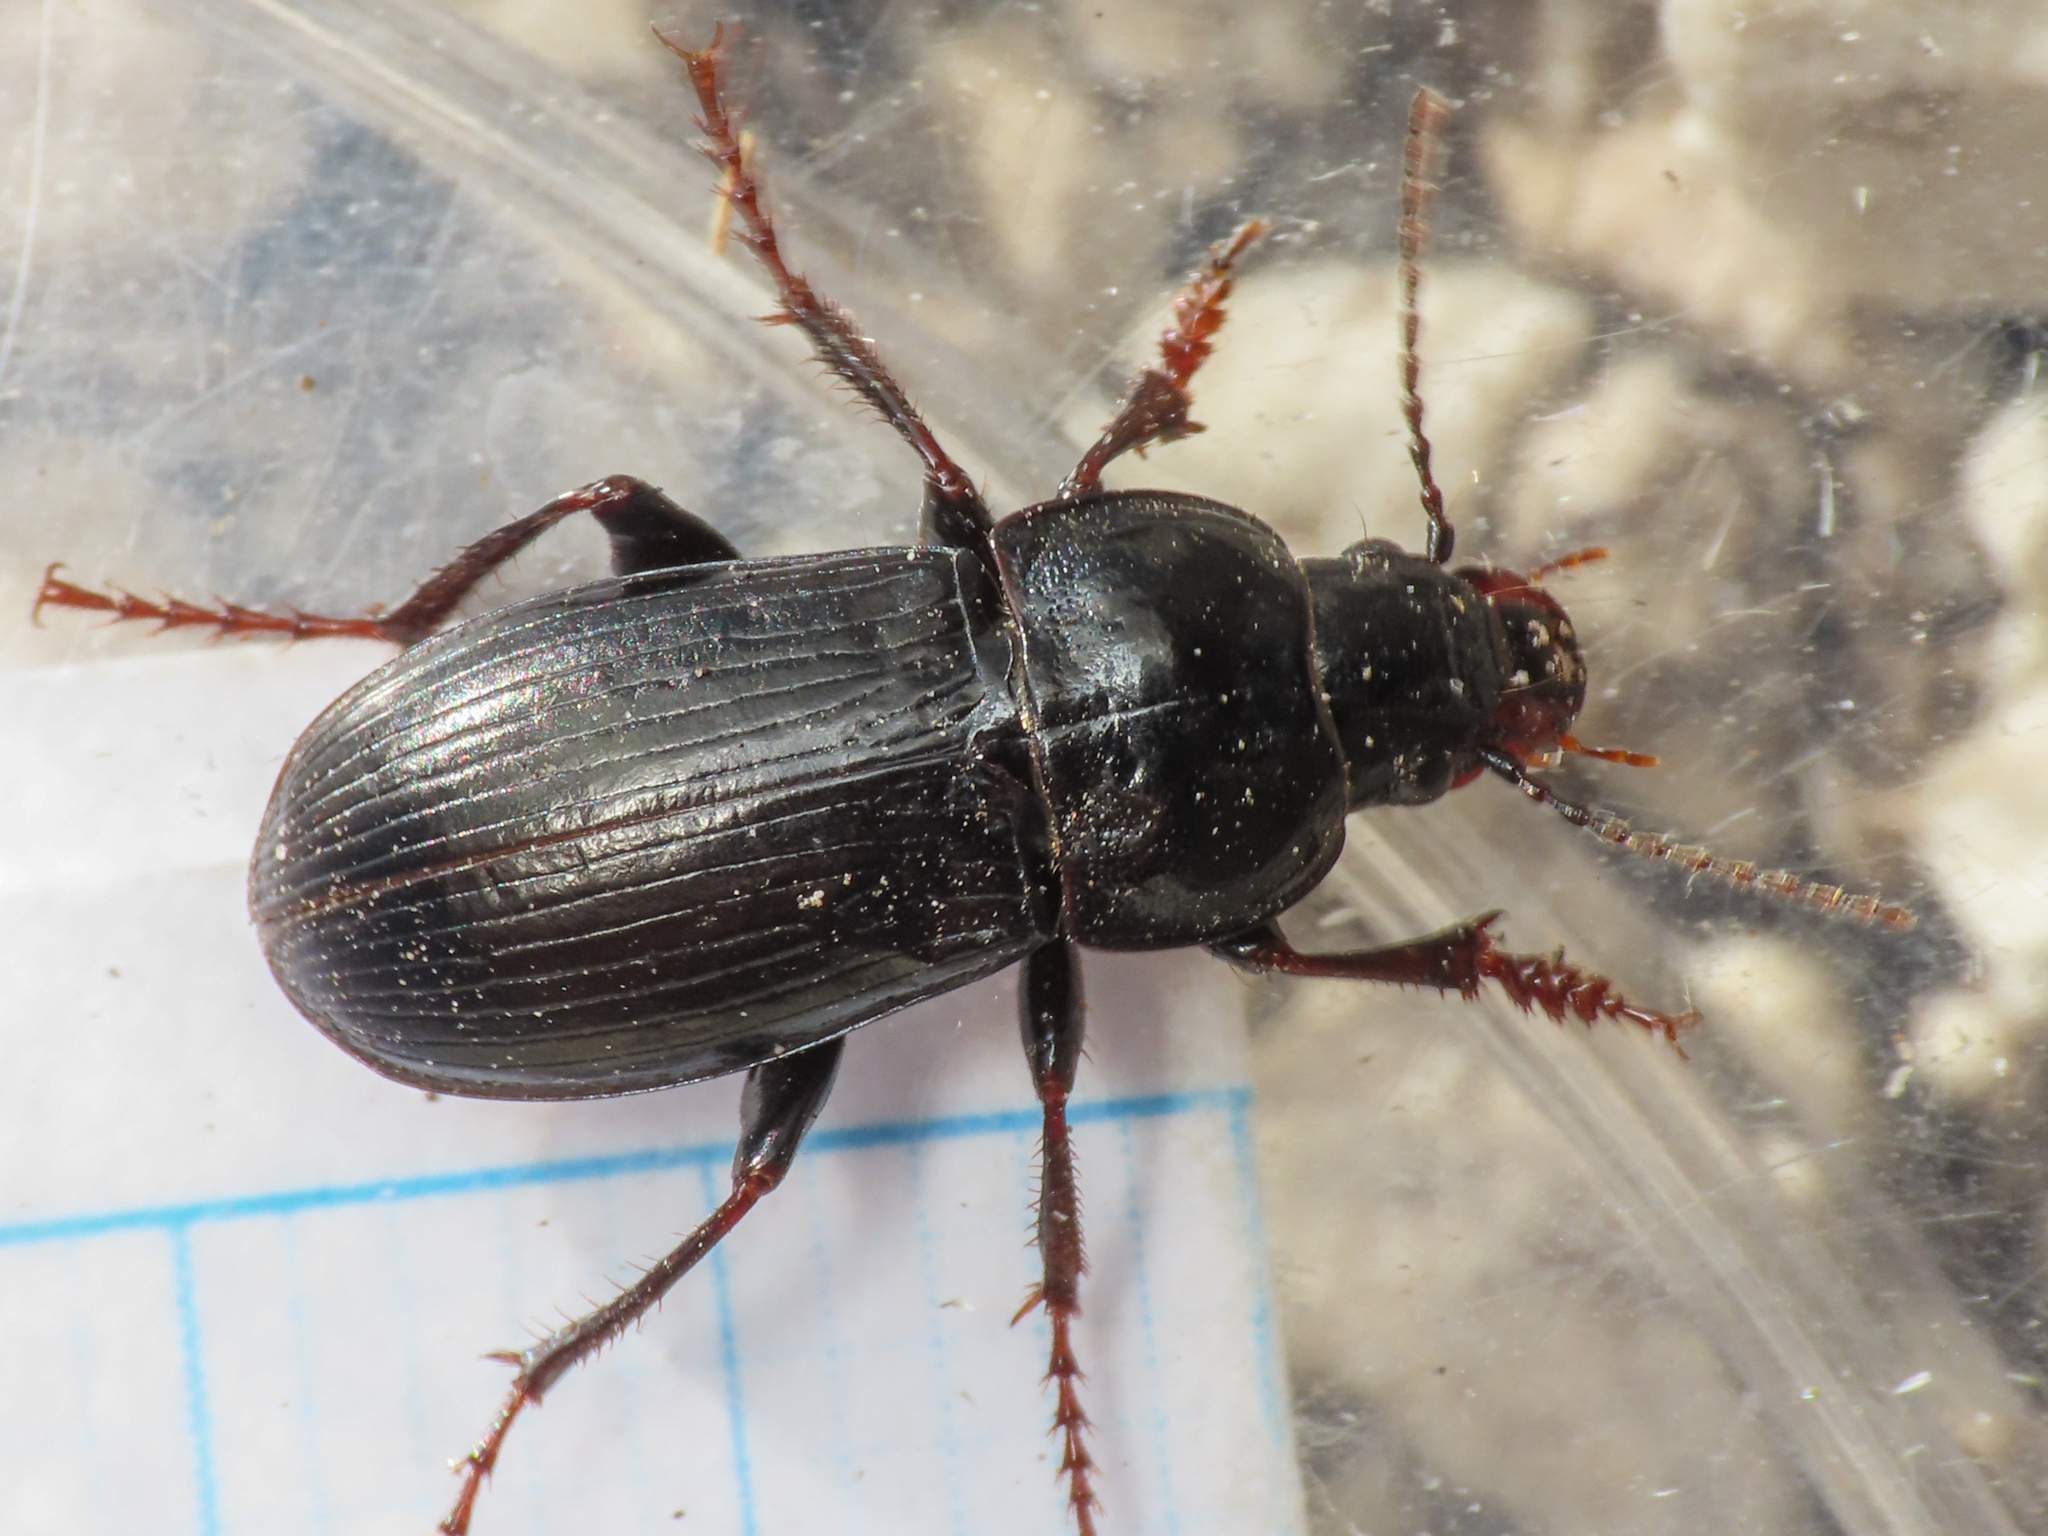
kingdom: Animalia
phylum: Arthropoda
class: Insecta
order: Coleoptera
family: Carabidae
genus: Zabrus
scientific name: Zabrus orsinii
